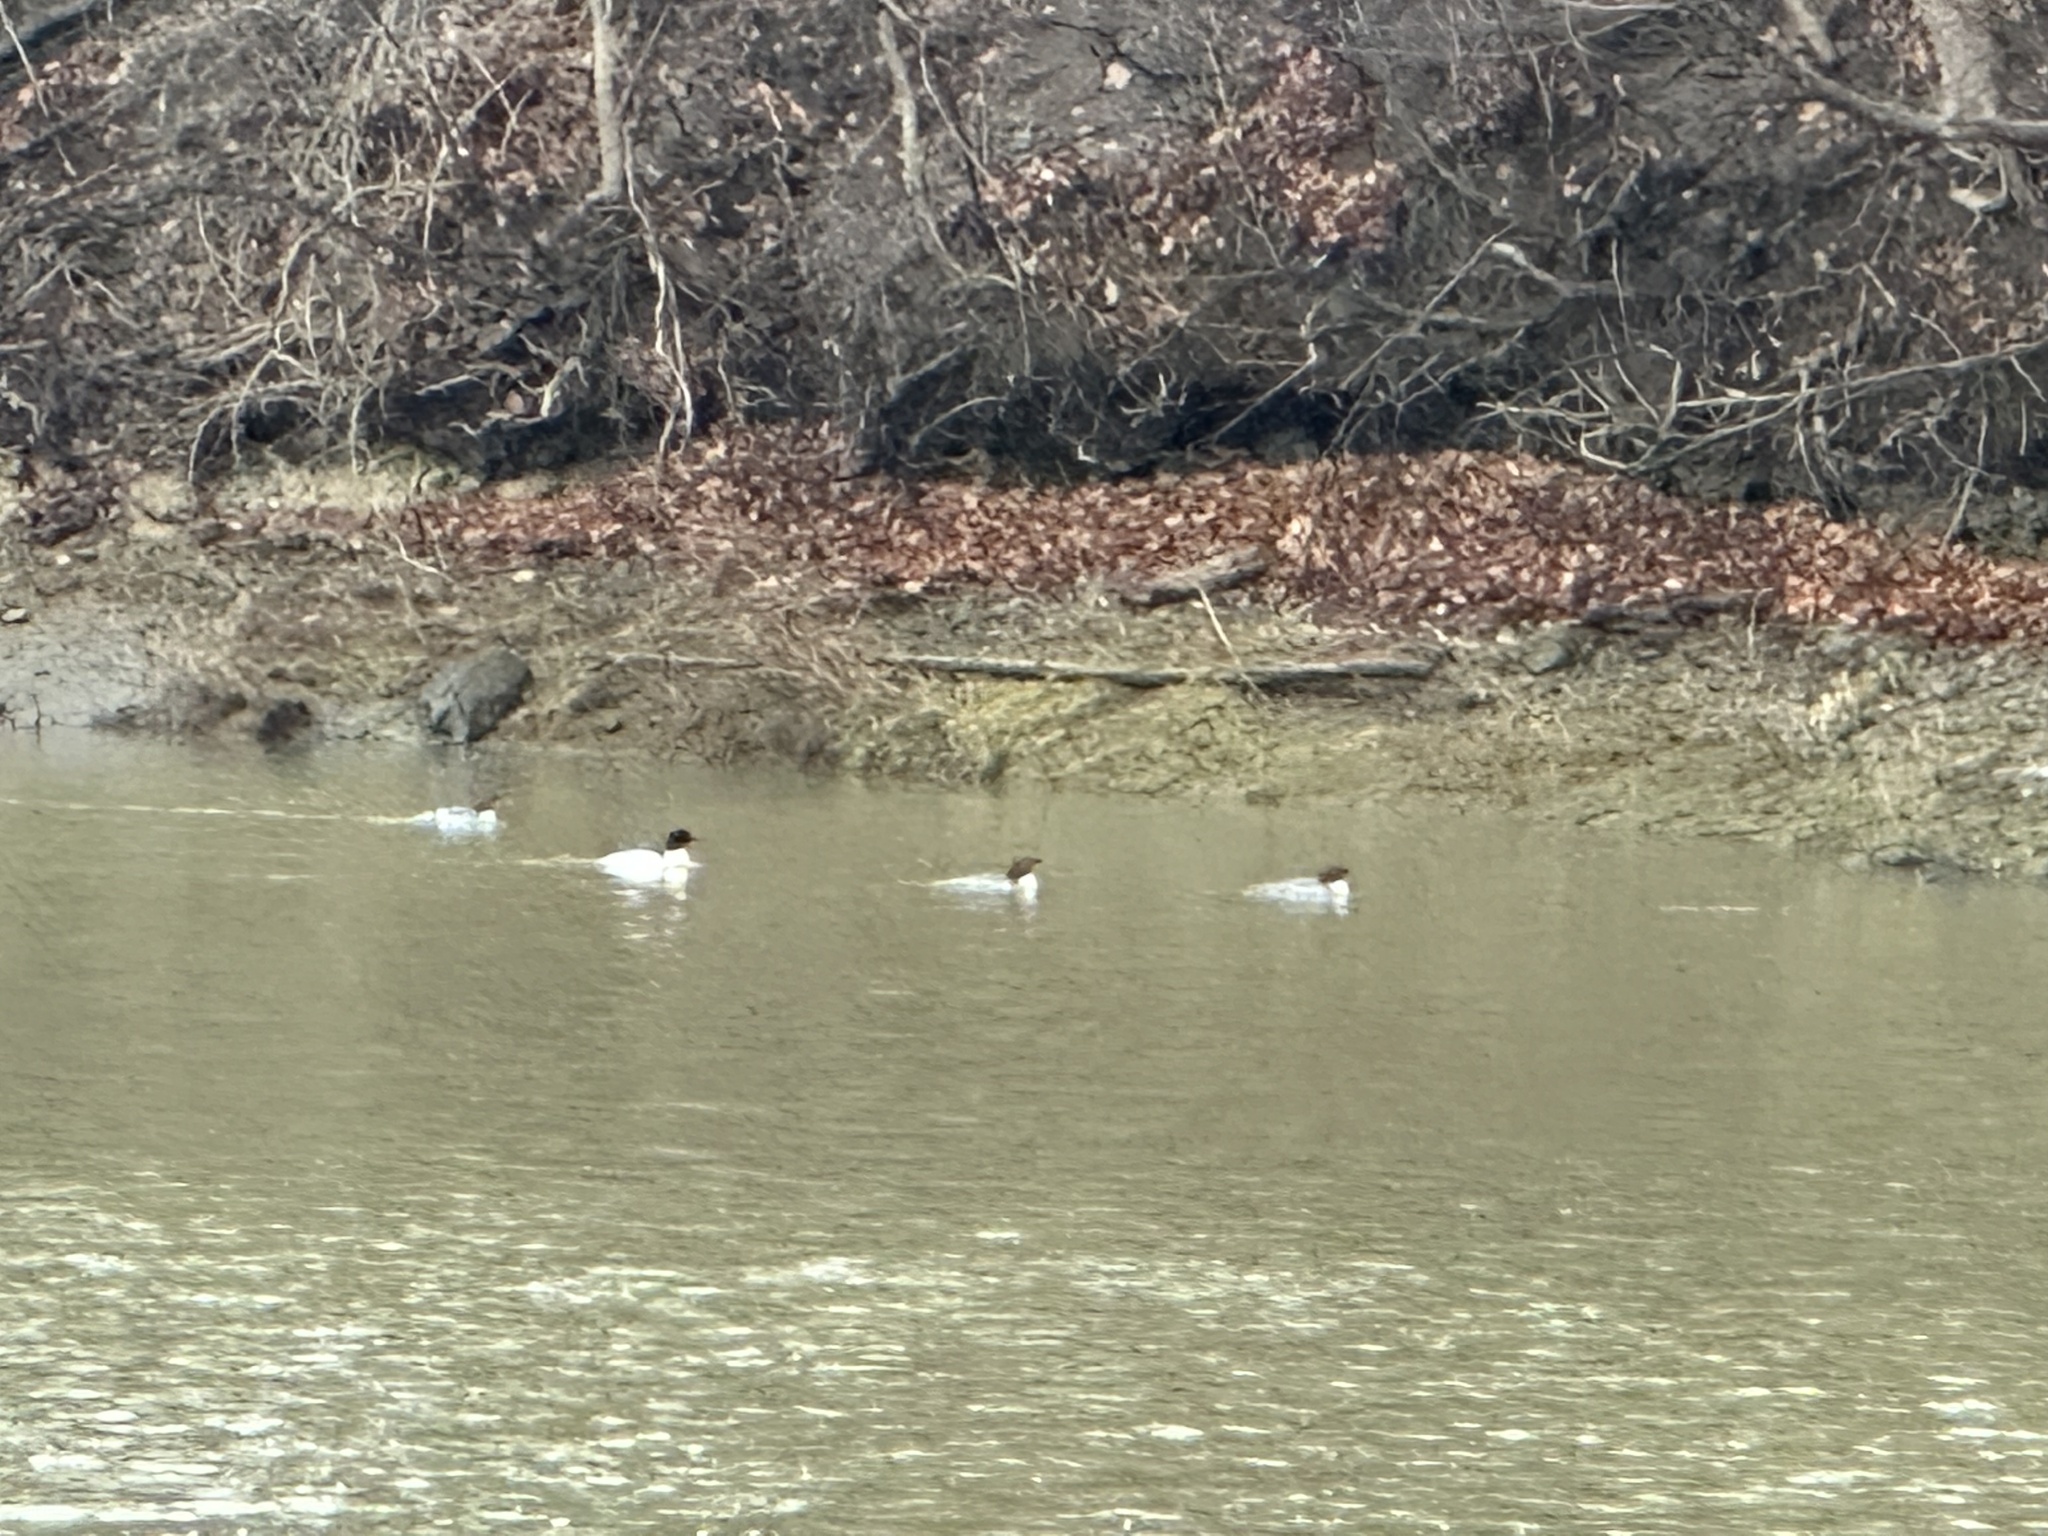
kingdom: Animalia
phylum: Chordata
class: Aves
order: Anseriformes
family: Anatidae
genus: Mergus
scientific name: Mergus merganser
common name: Common merganser
